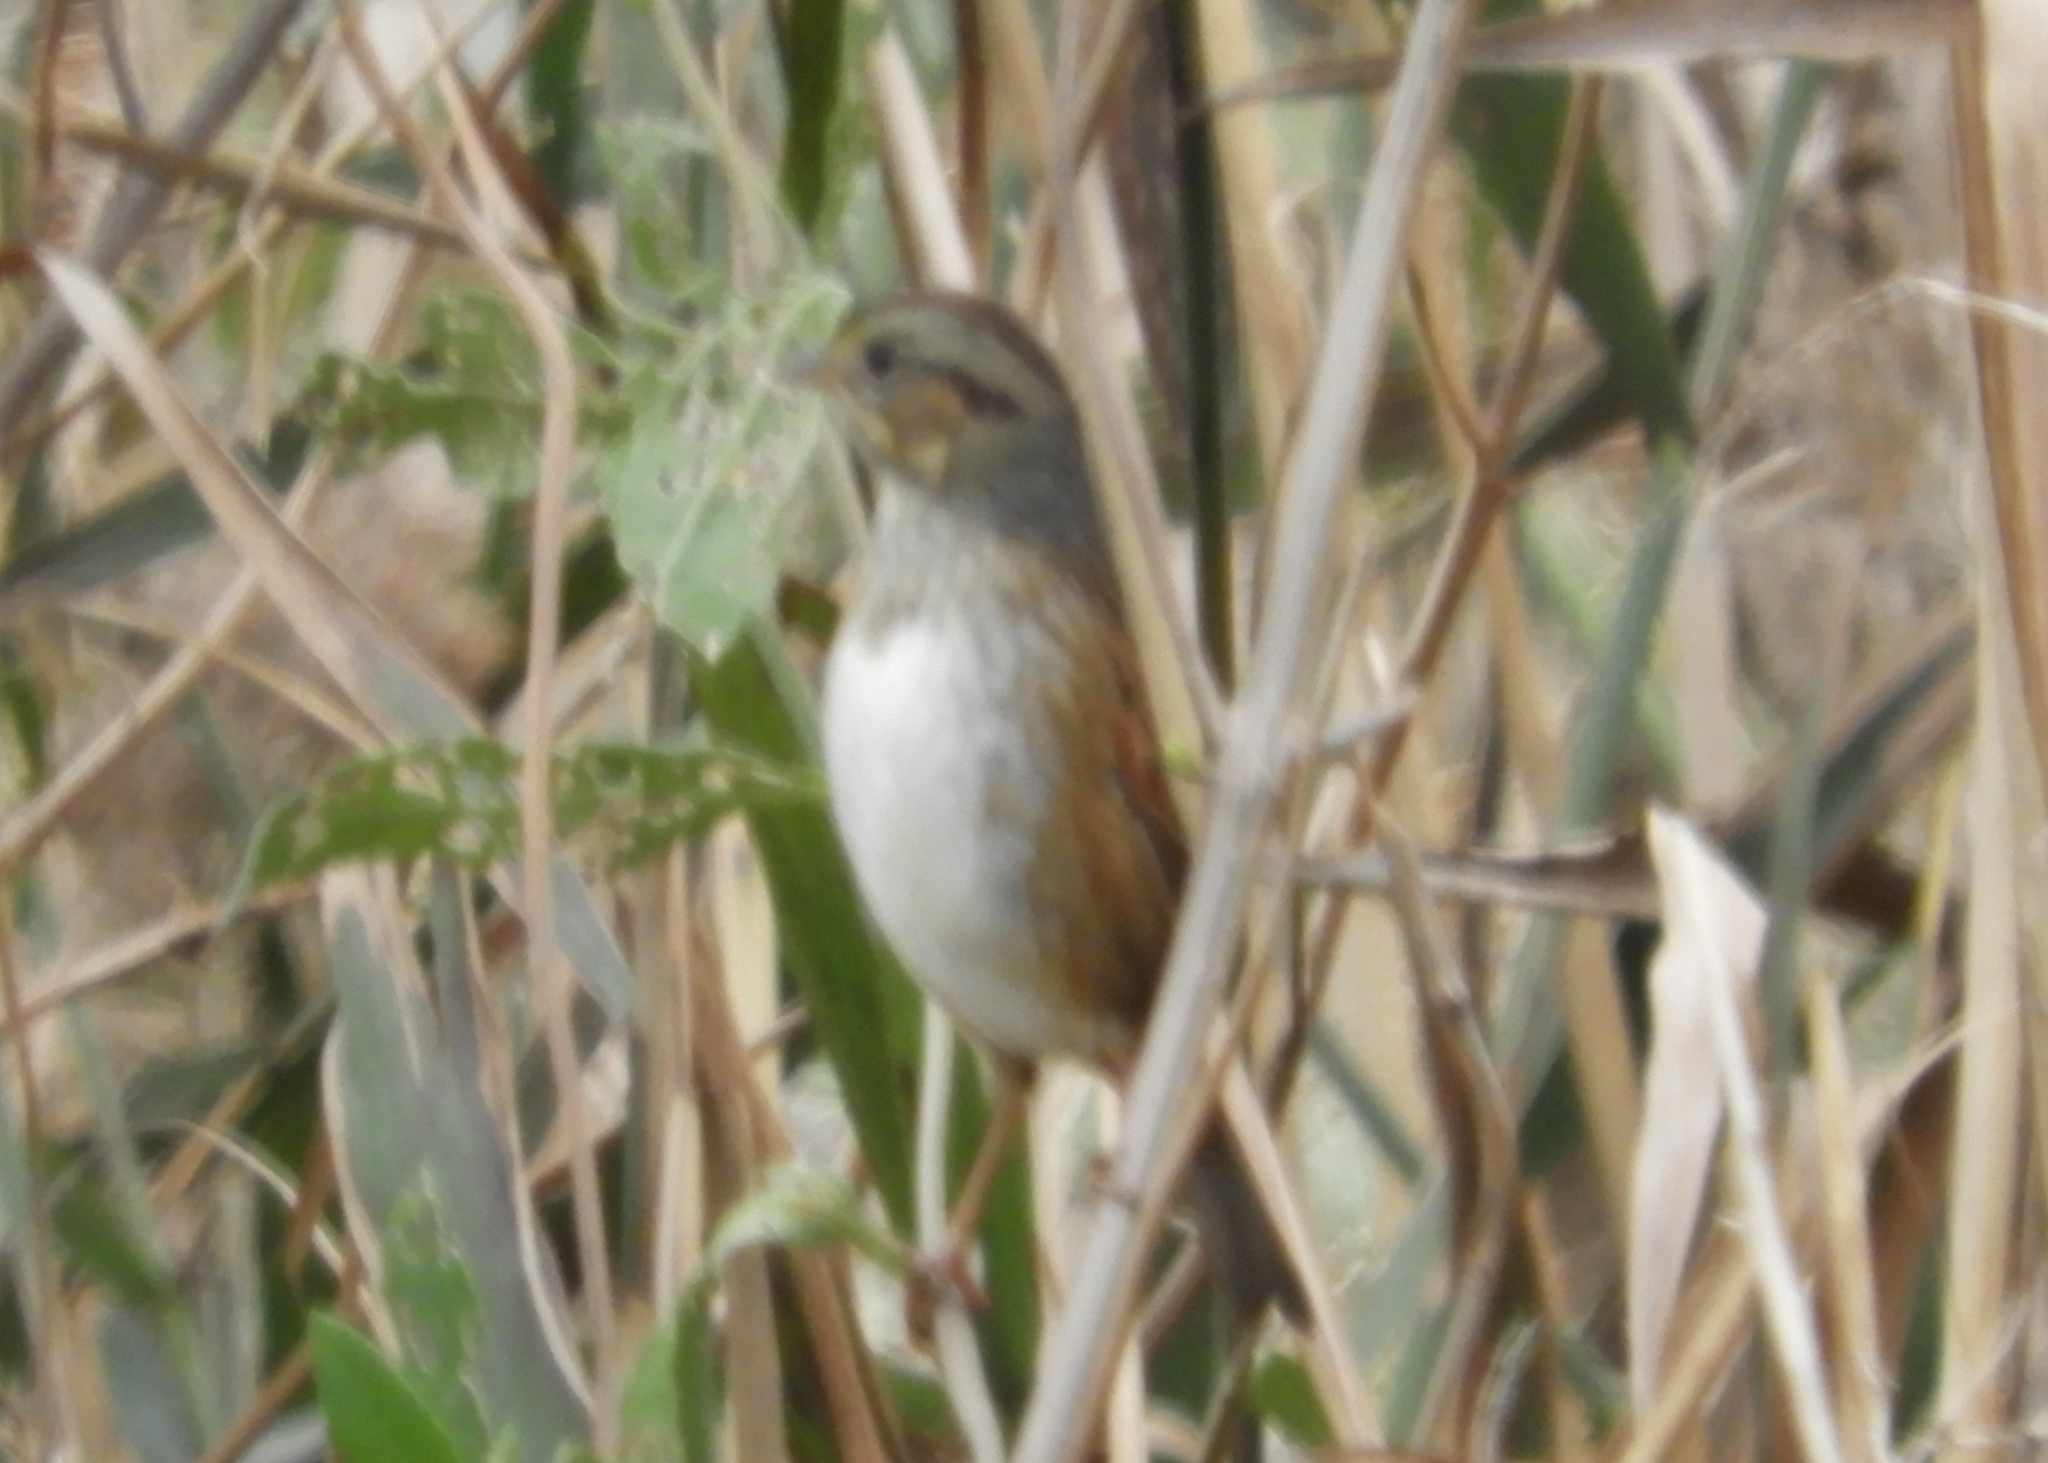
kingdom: Animalia
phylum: Chordata
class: Aves
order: Passeriformes
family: Passerellidae
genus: Melospiza
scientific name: Melospiza georgiana
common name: Swamp sparrow
